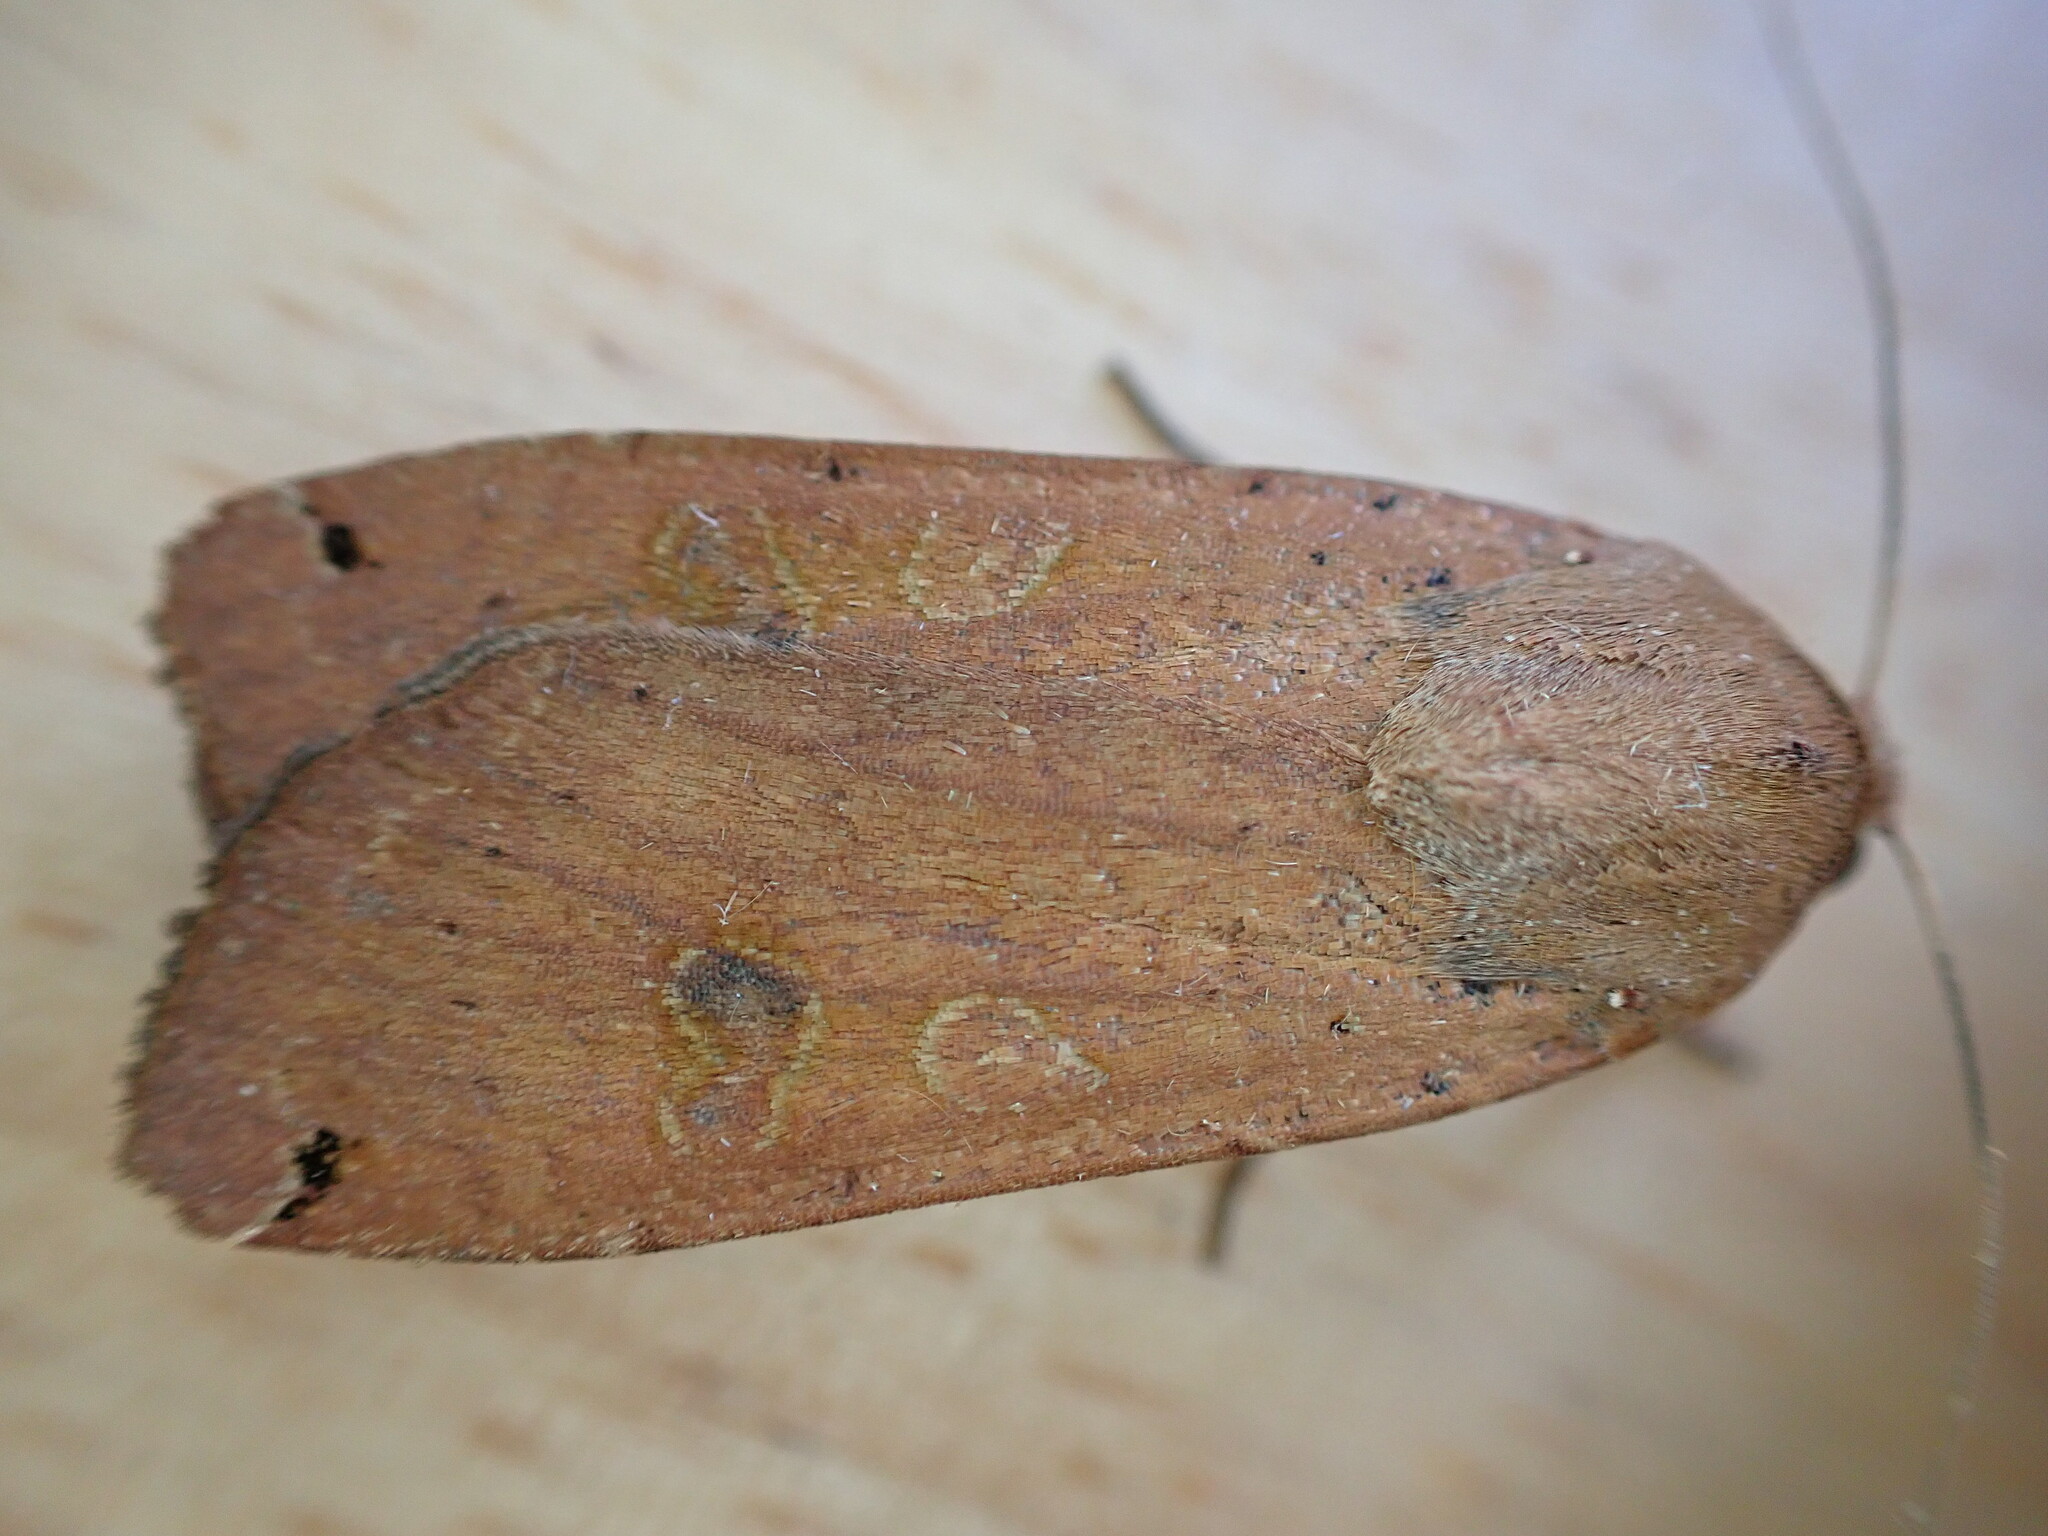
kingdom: Animalia
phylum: Arthropoda
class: Insecta
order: Lepidoptera
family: Noctuidae
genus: Noctua
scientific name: Noctua pronuba
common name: Large yellow underwing
